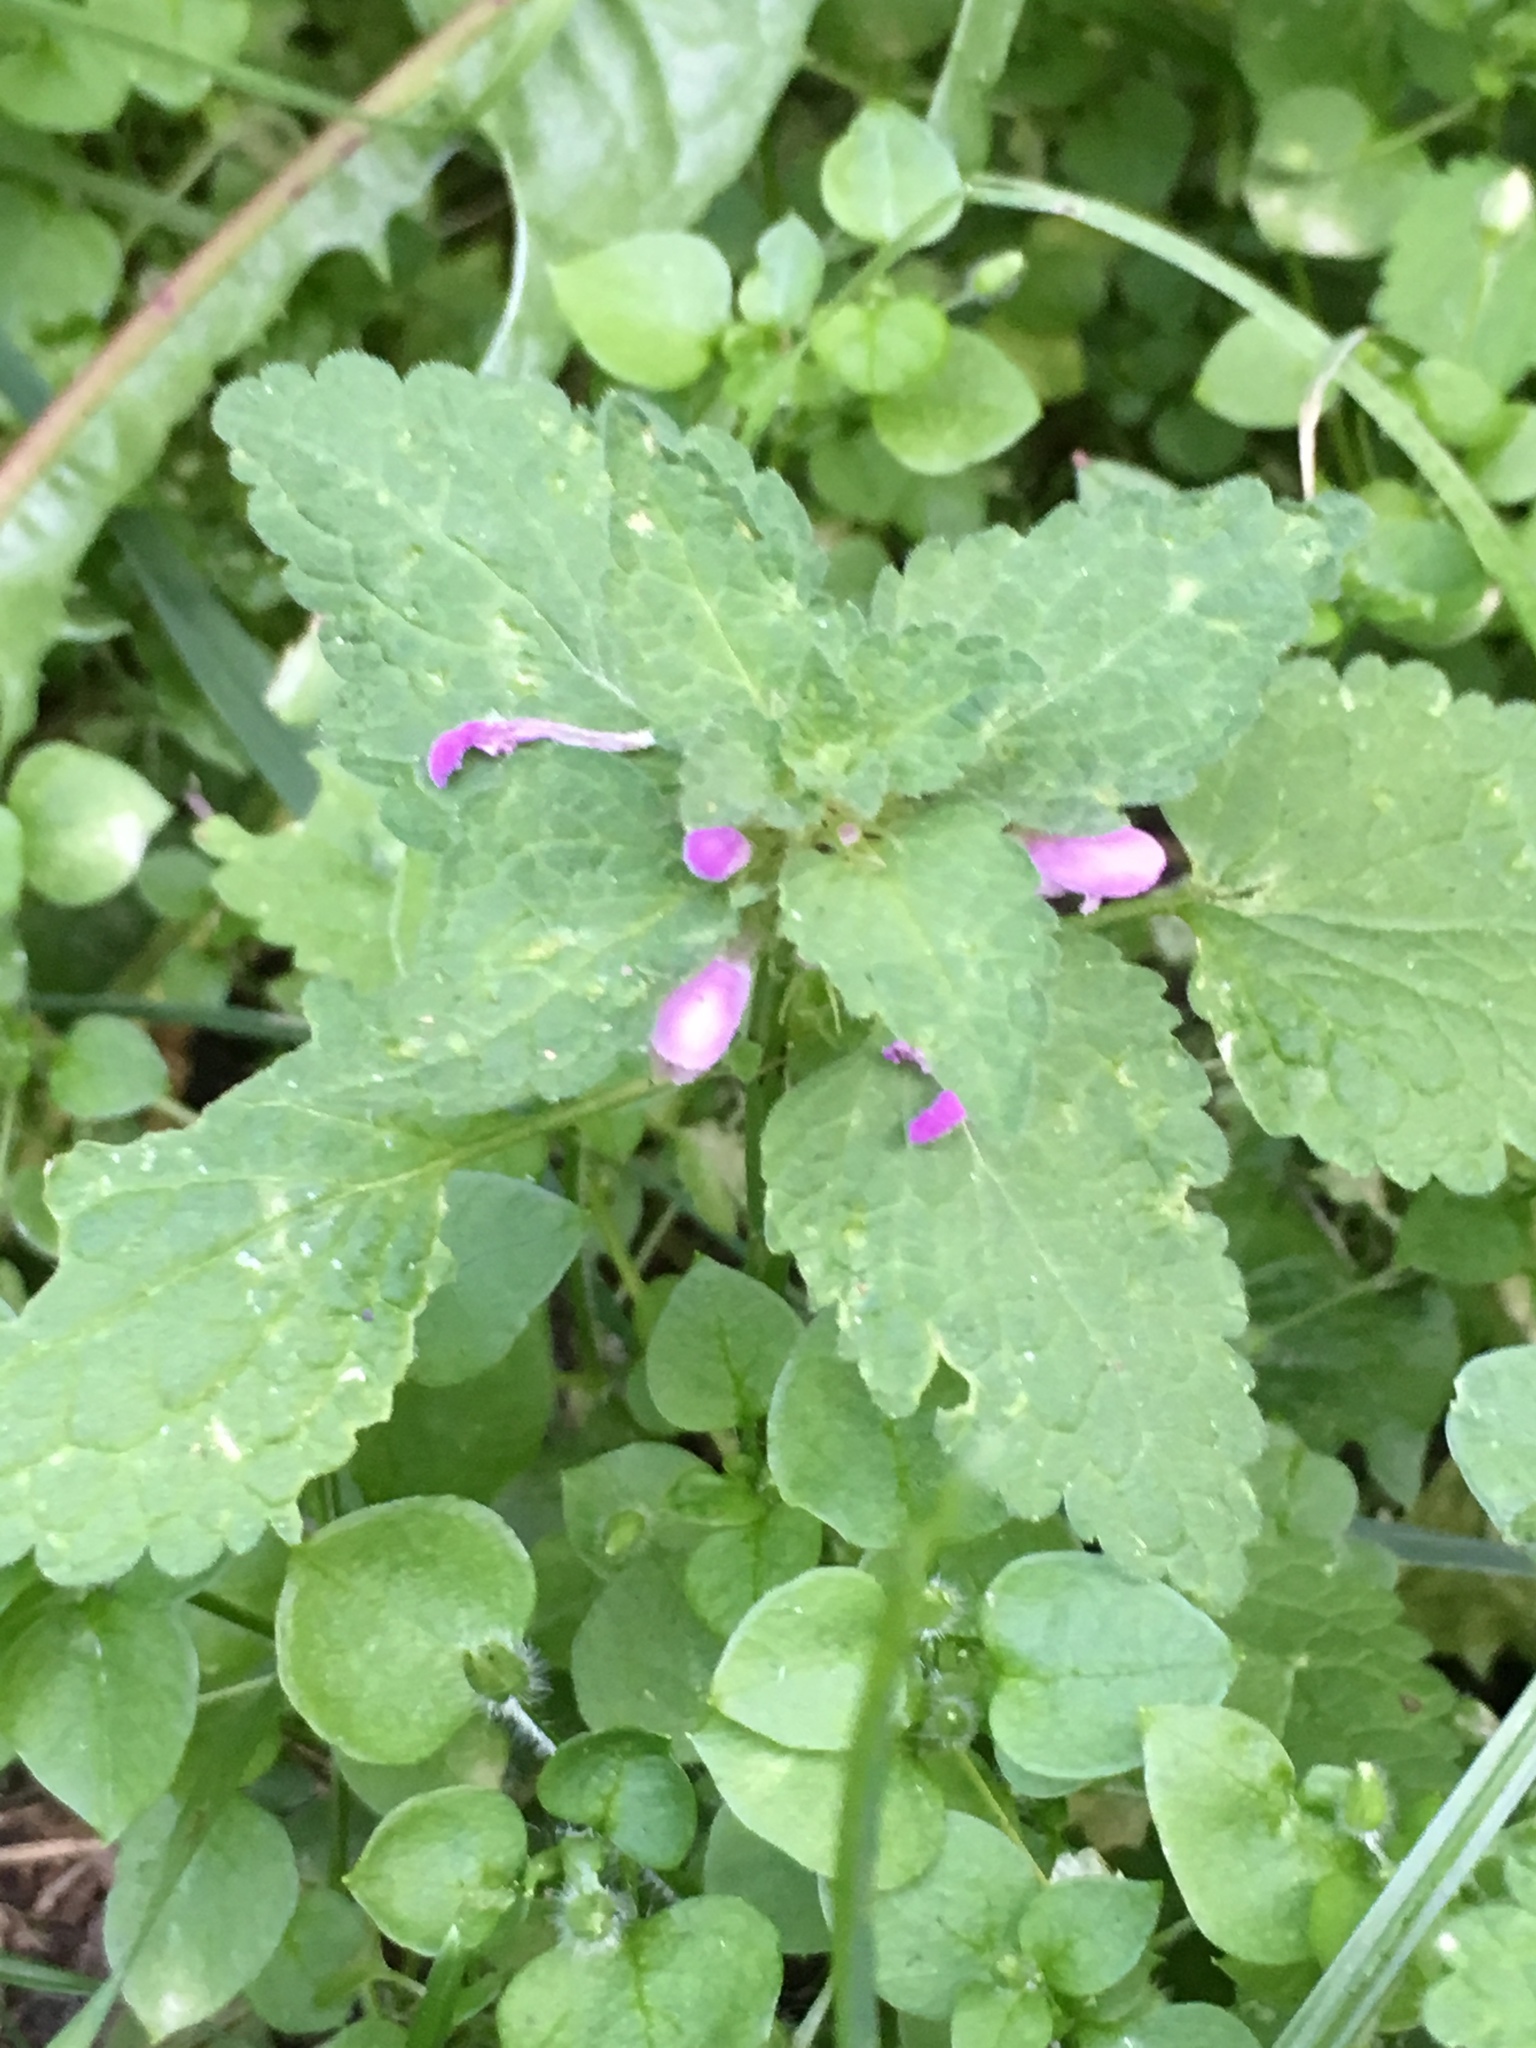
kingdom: Plantae
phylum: Tracheophyta
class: Magnoliopsida
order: Lamiales
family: Lamiaceae
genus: Lamium
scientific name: Lamium purpureum
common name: Red dead-nettle
